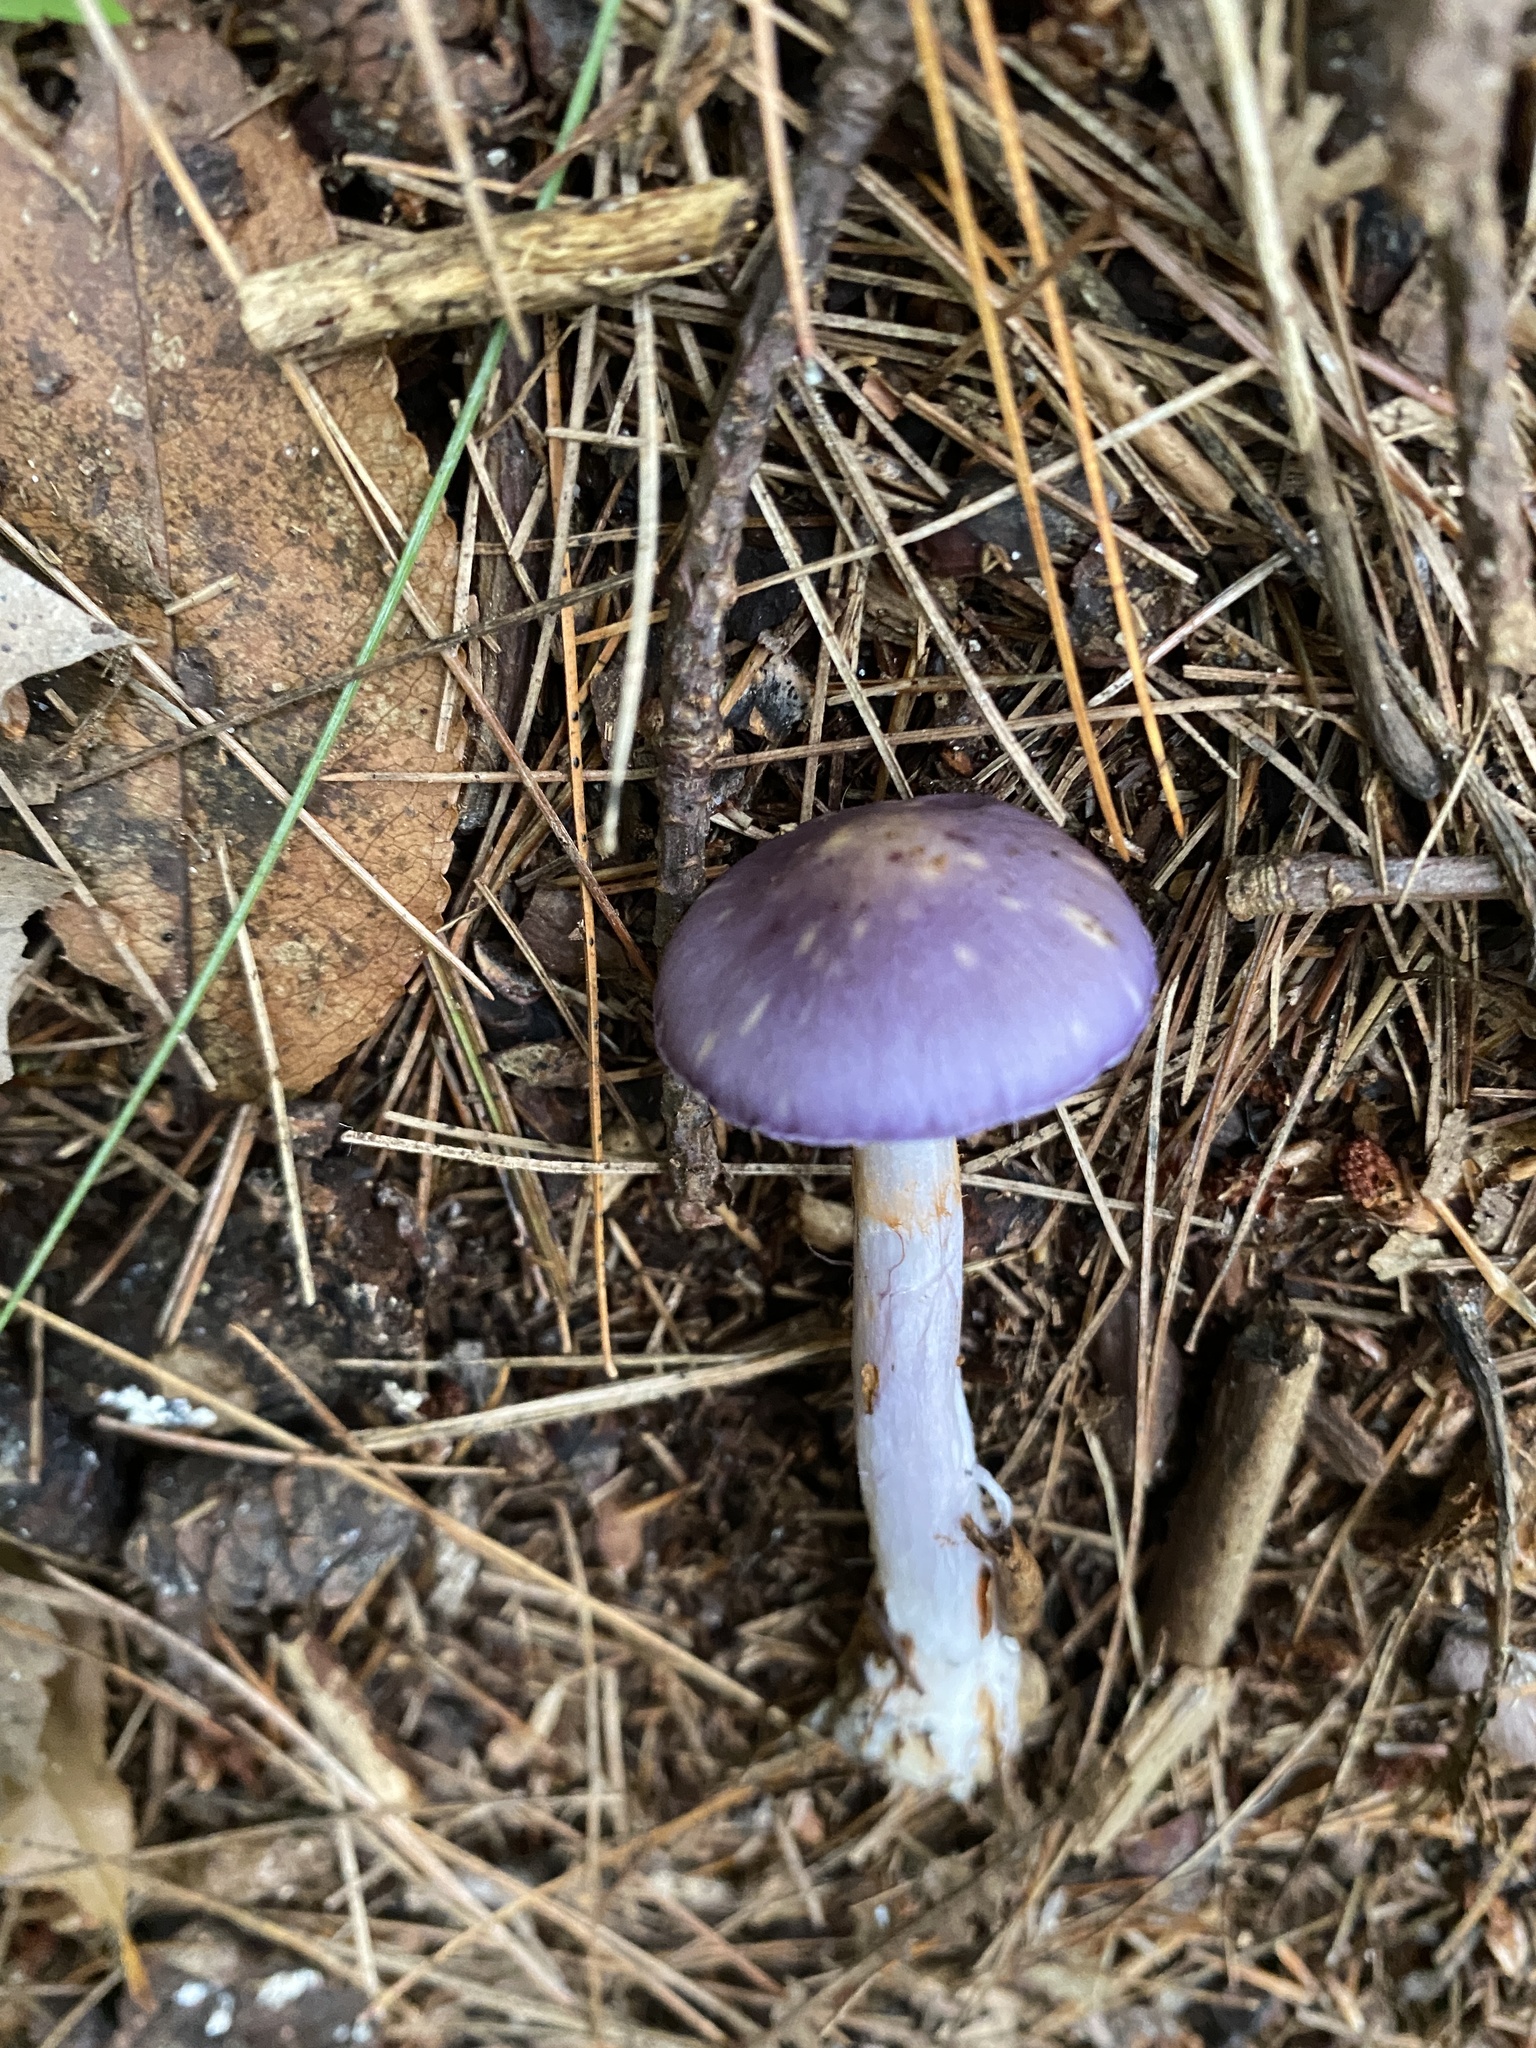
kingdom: Fungi
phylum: Basidiomycota
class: Agaricomycetes
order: Agaricales
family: Cortinariaceae
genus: Cortinarius
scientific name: Cortinarius iodes
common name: Viscid violet cort
